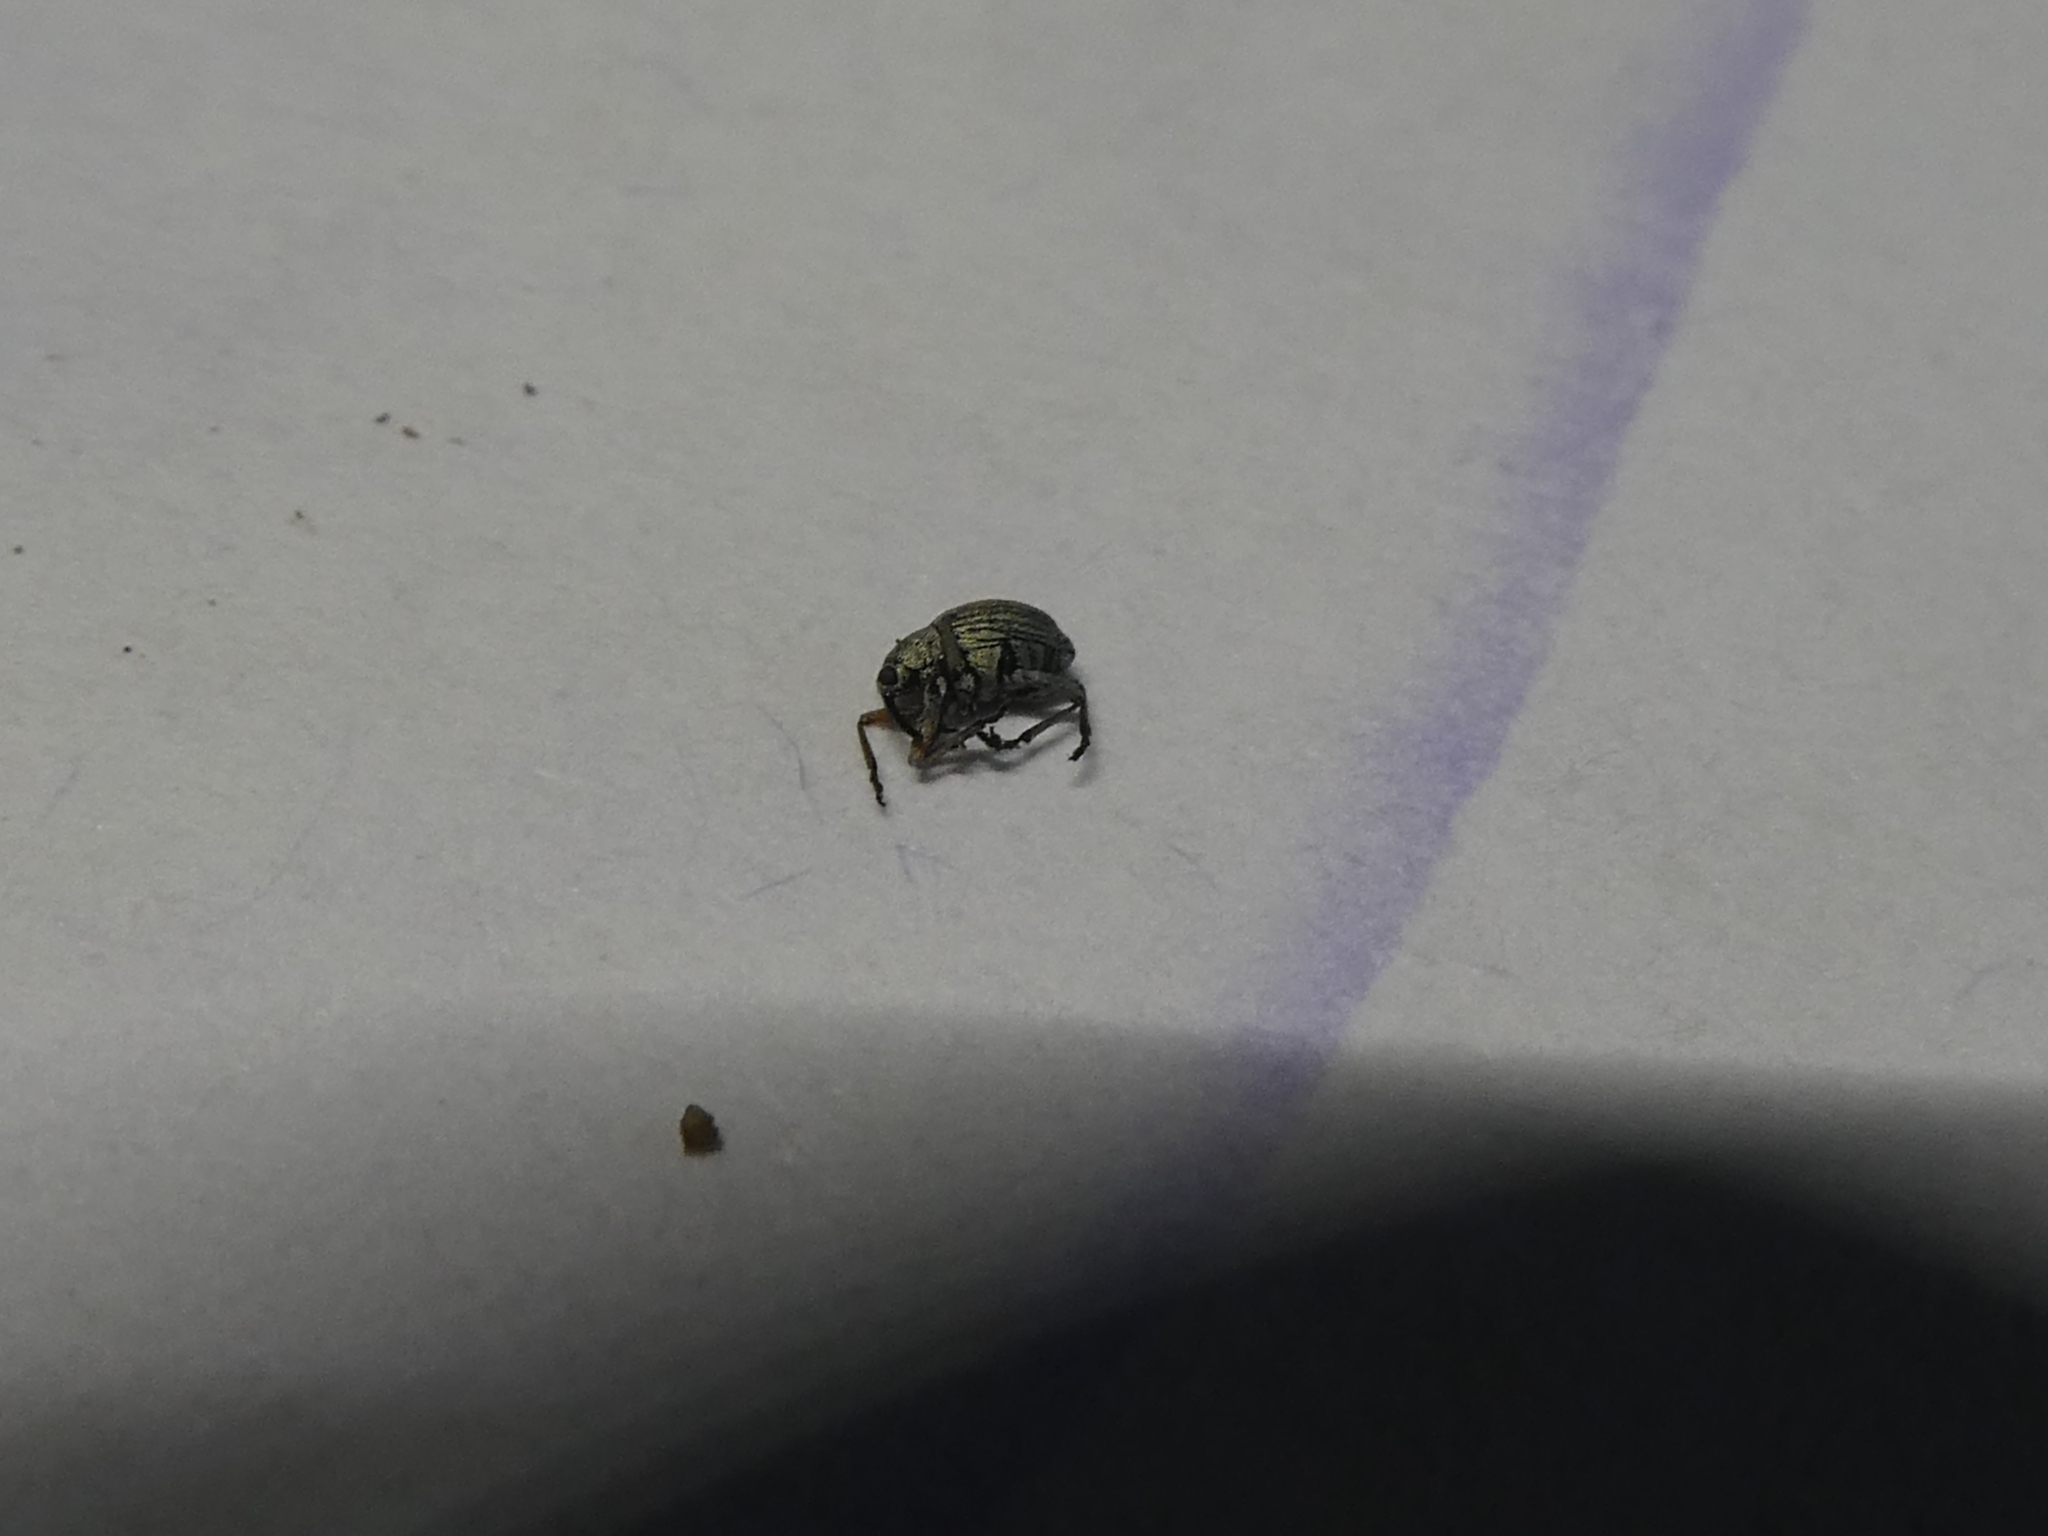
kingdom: Animalia
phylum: Arthropoda
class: Insecta
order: Coleoptera
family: Brentidae
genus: Exapion
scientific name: Exapion ulicis
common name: Gorse seed weevil
